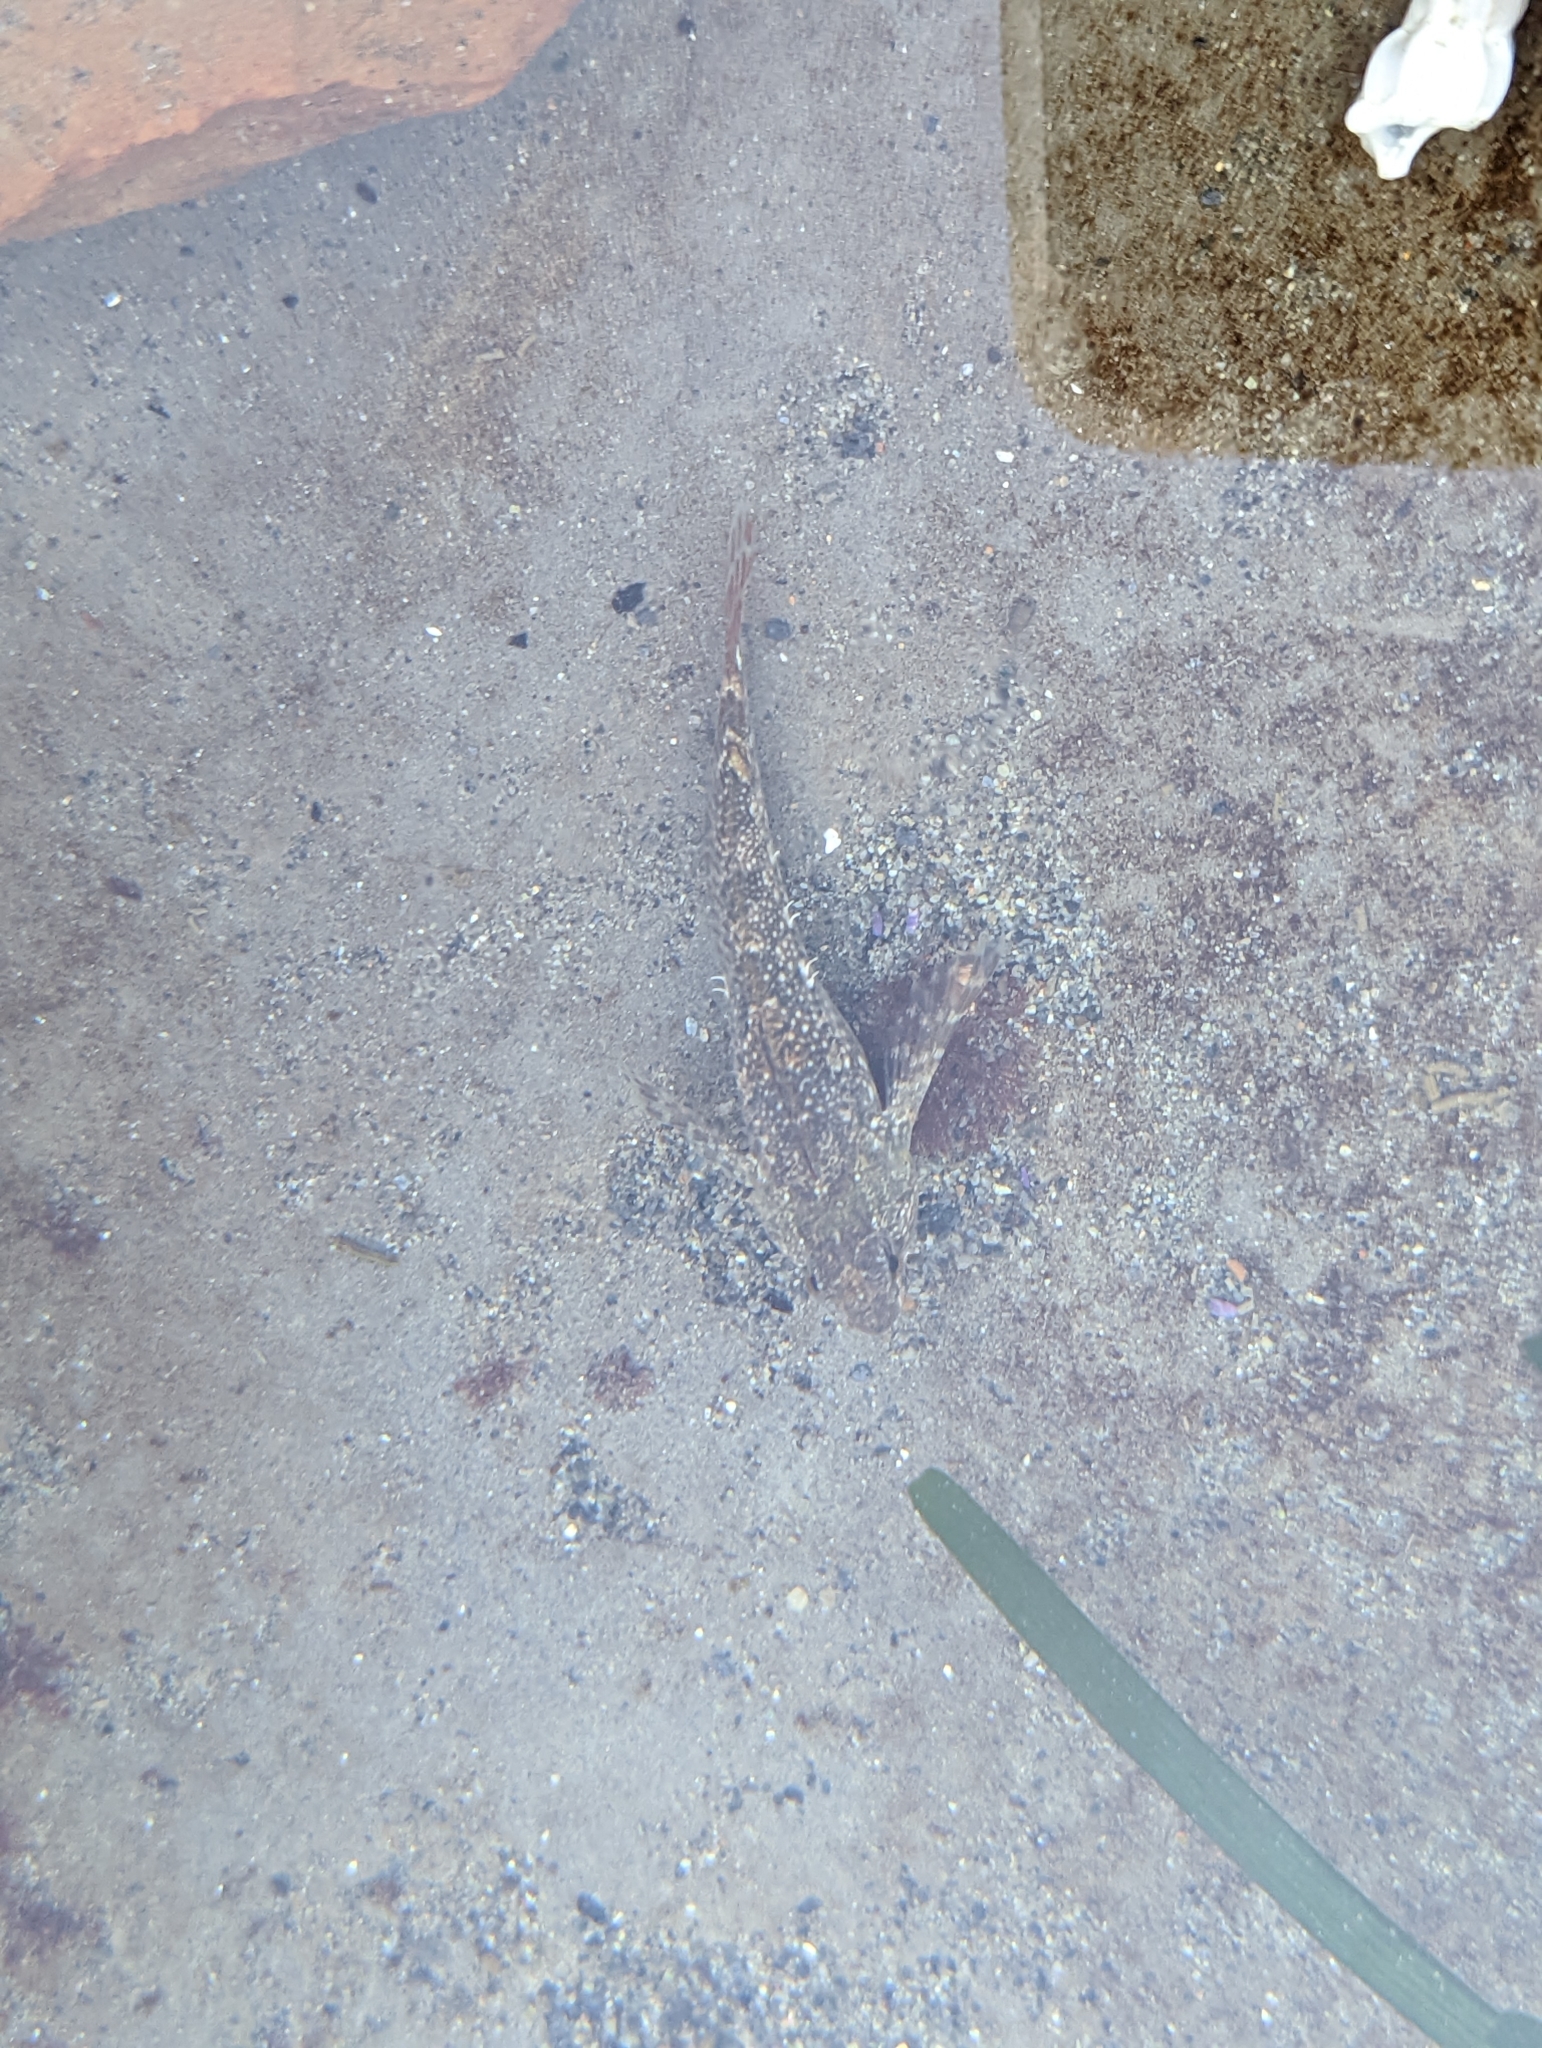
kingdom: Animalia
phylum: Chordata
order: Scorpaeniformes
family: Cottidae
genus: Oligocottus
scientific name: Oligocottus maculosus
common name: Tidepool sculpin
